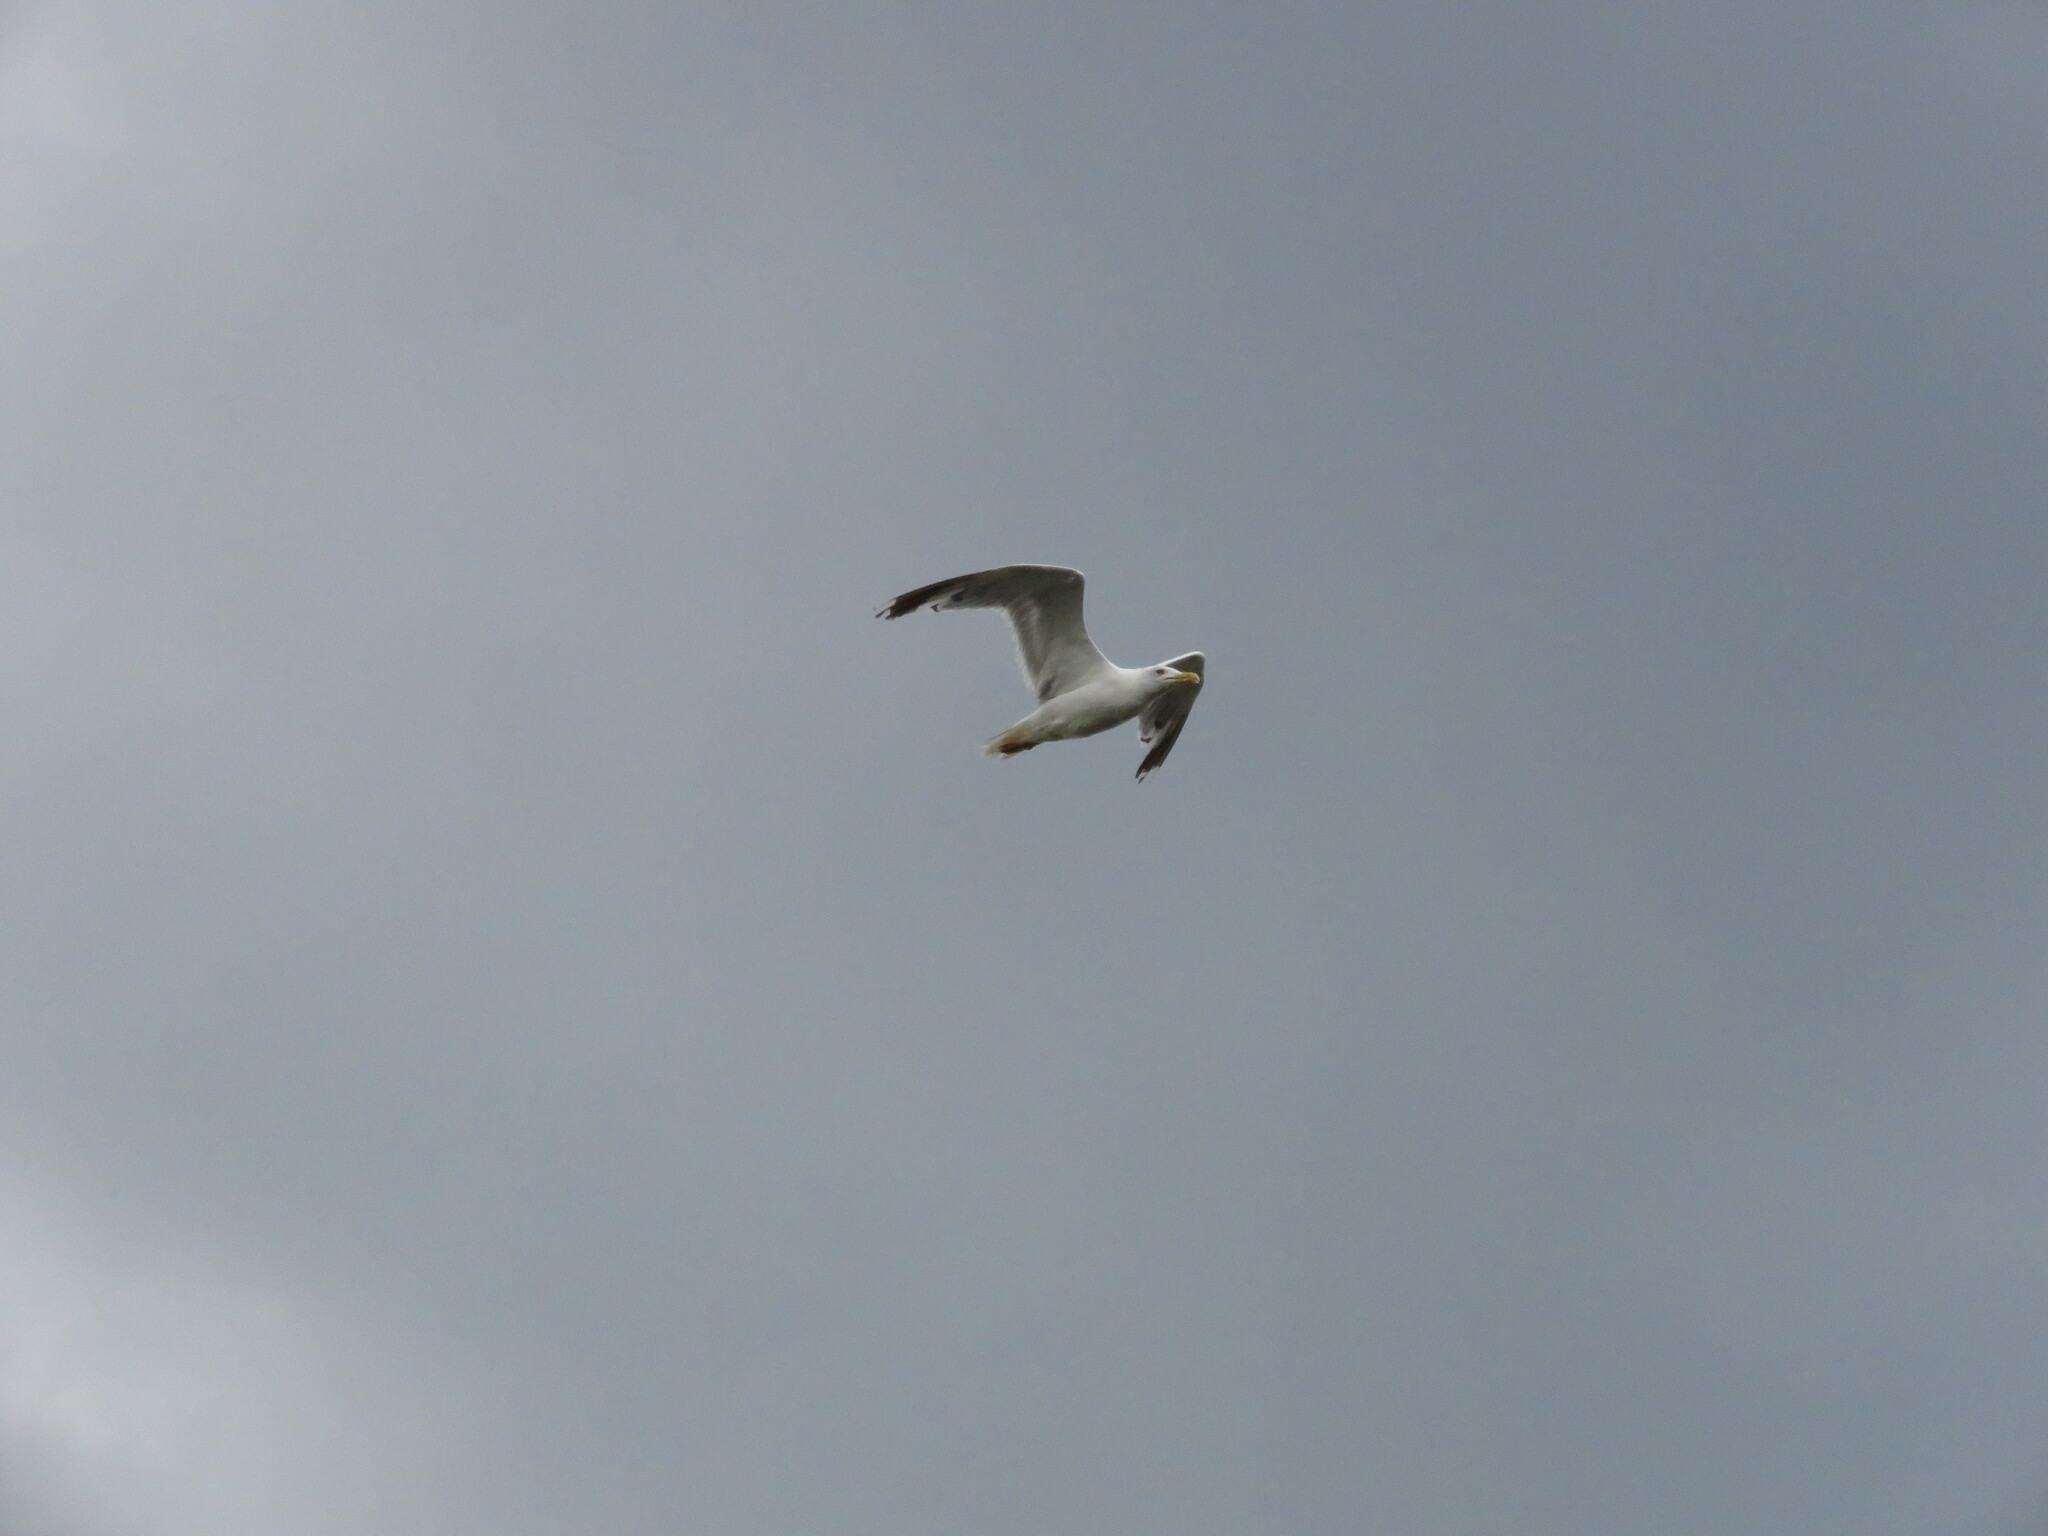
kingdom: Animalia
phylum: Chordata
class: Aves
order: Charadriiformes
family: Laridae
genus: Larus
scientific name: Larus michahellis
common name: Yellow-legged gull
